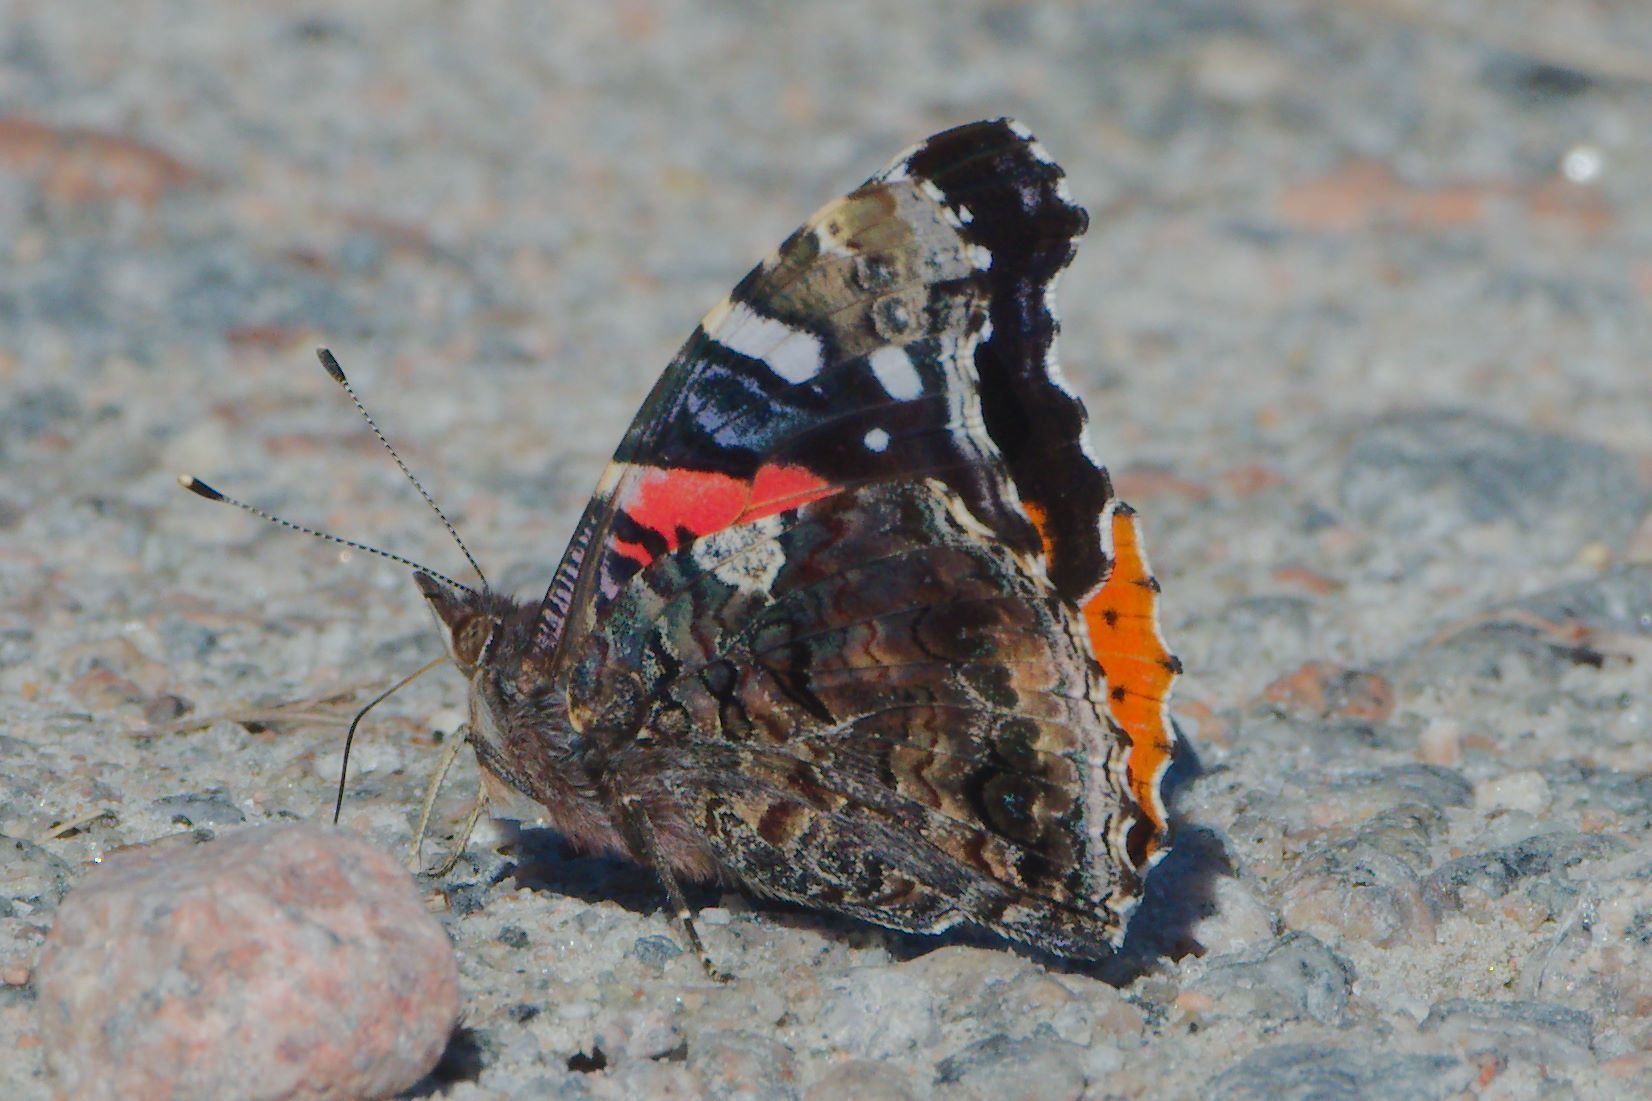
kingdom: Animalia
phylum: Arthropoda
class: Insecta
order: Lepidoptera
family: Nymphalidae
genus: Vanessa
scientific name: Vanessa atalanta
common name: Red admiral
